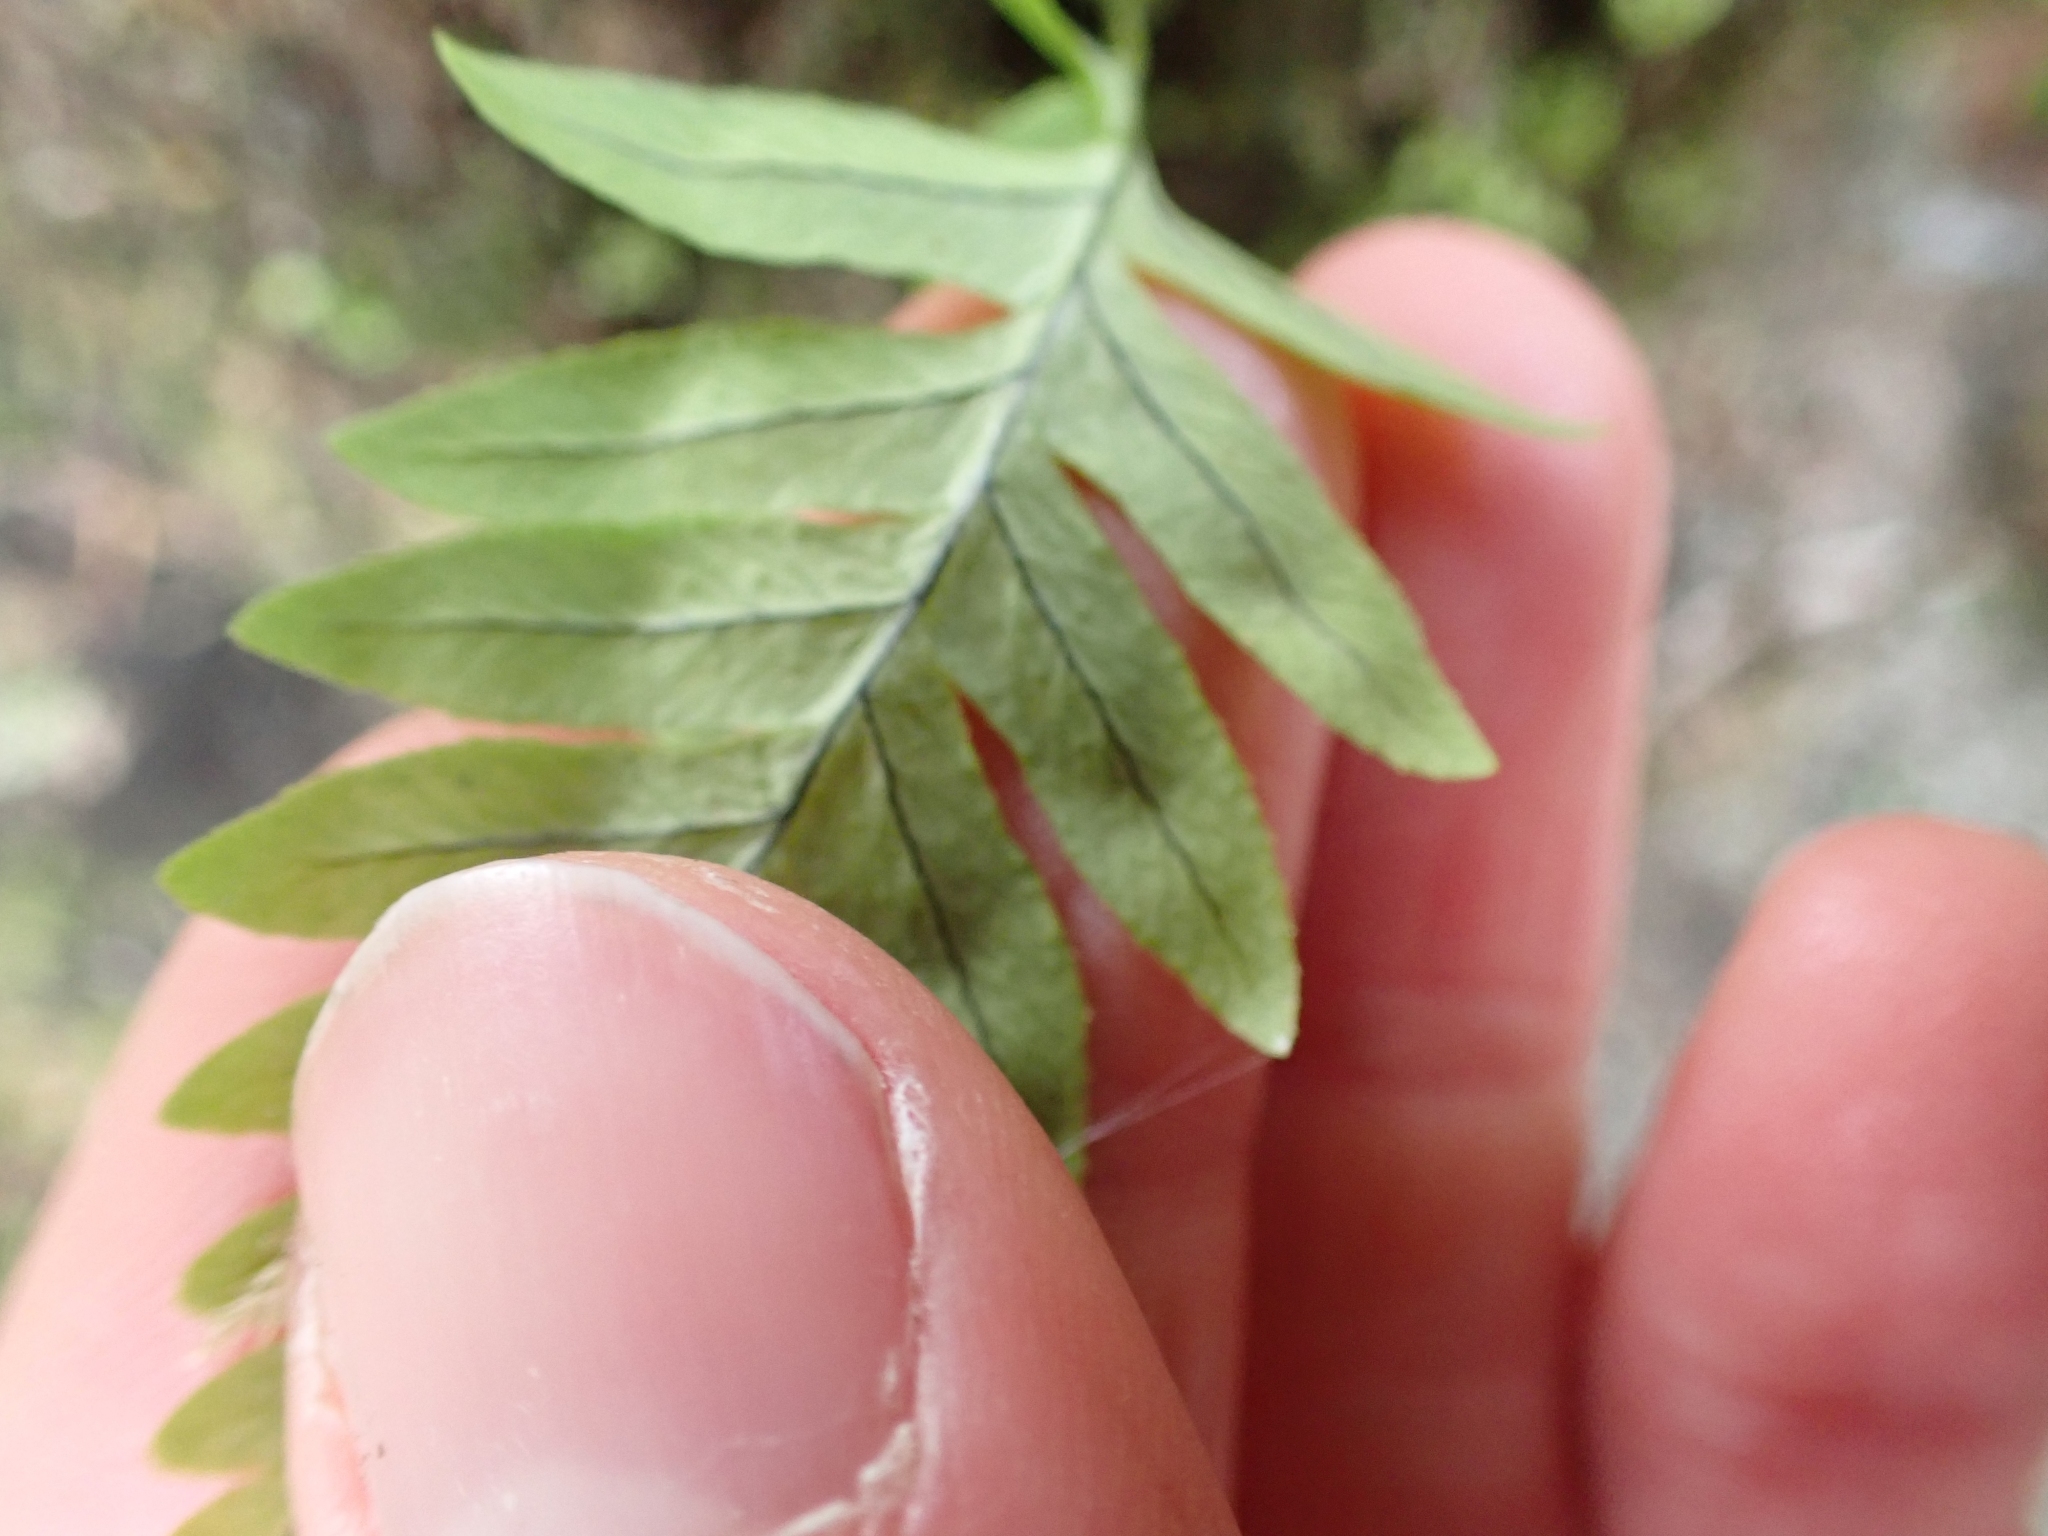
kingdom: Plantae
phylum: Tracheophyta
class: Polypodiopsida
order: Polypodiales
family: Polypodiaceae
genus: Polypodium
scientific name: Polypodium glycyrrhiza
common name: Licorice fern
